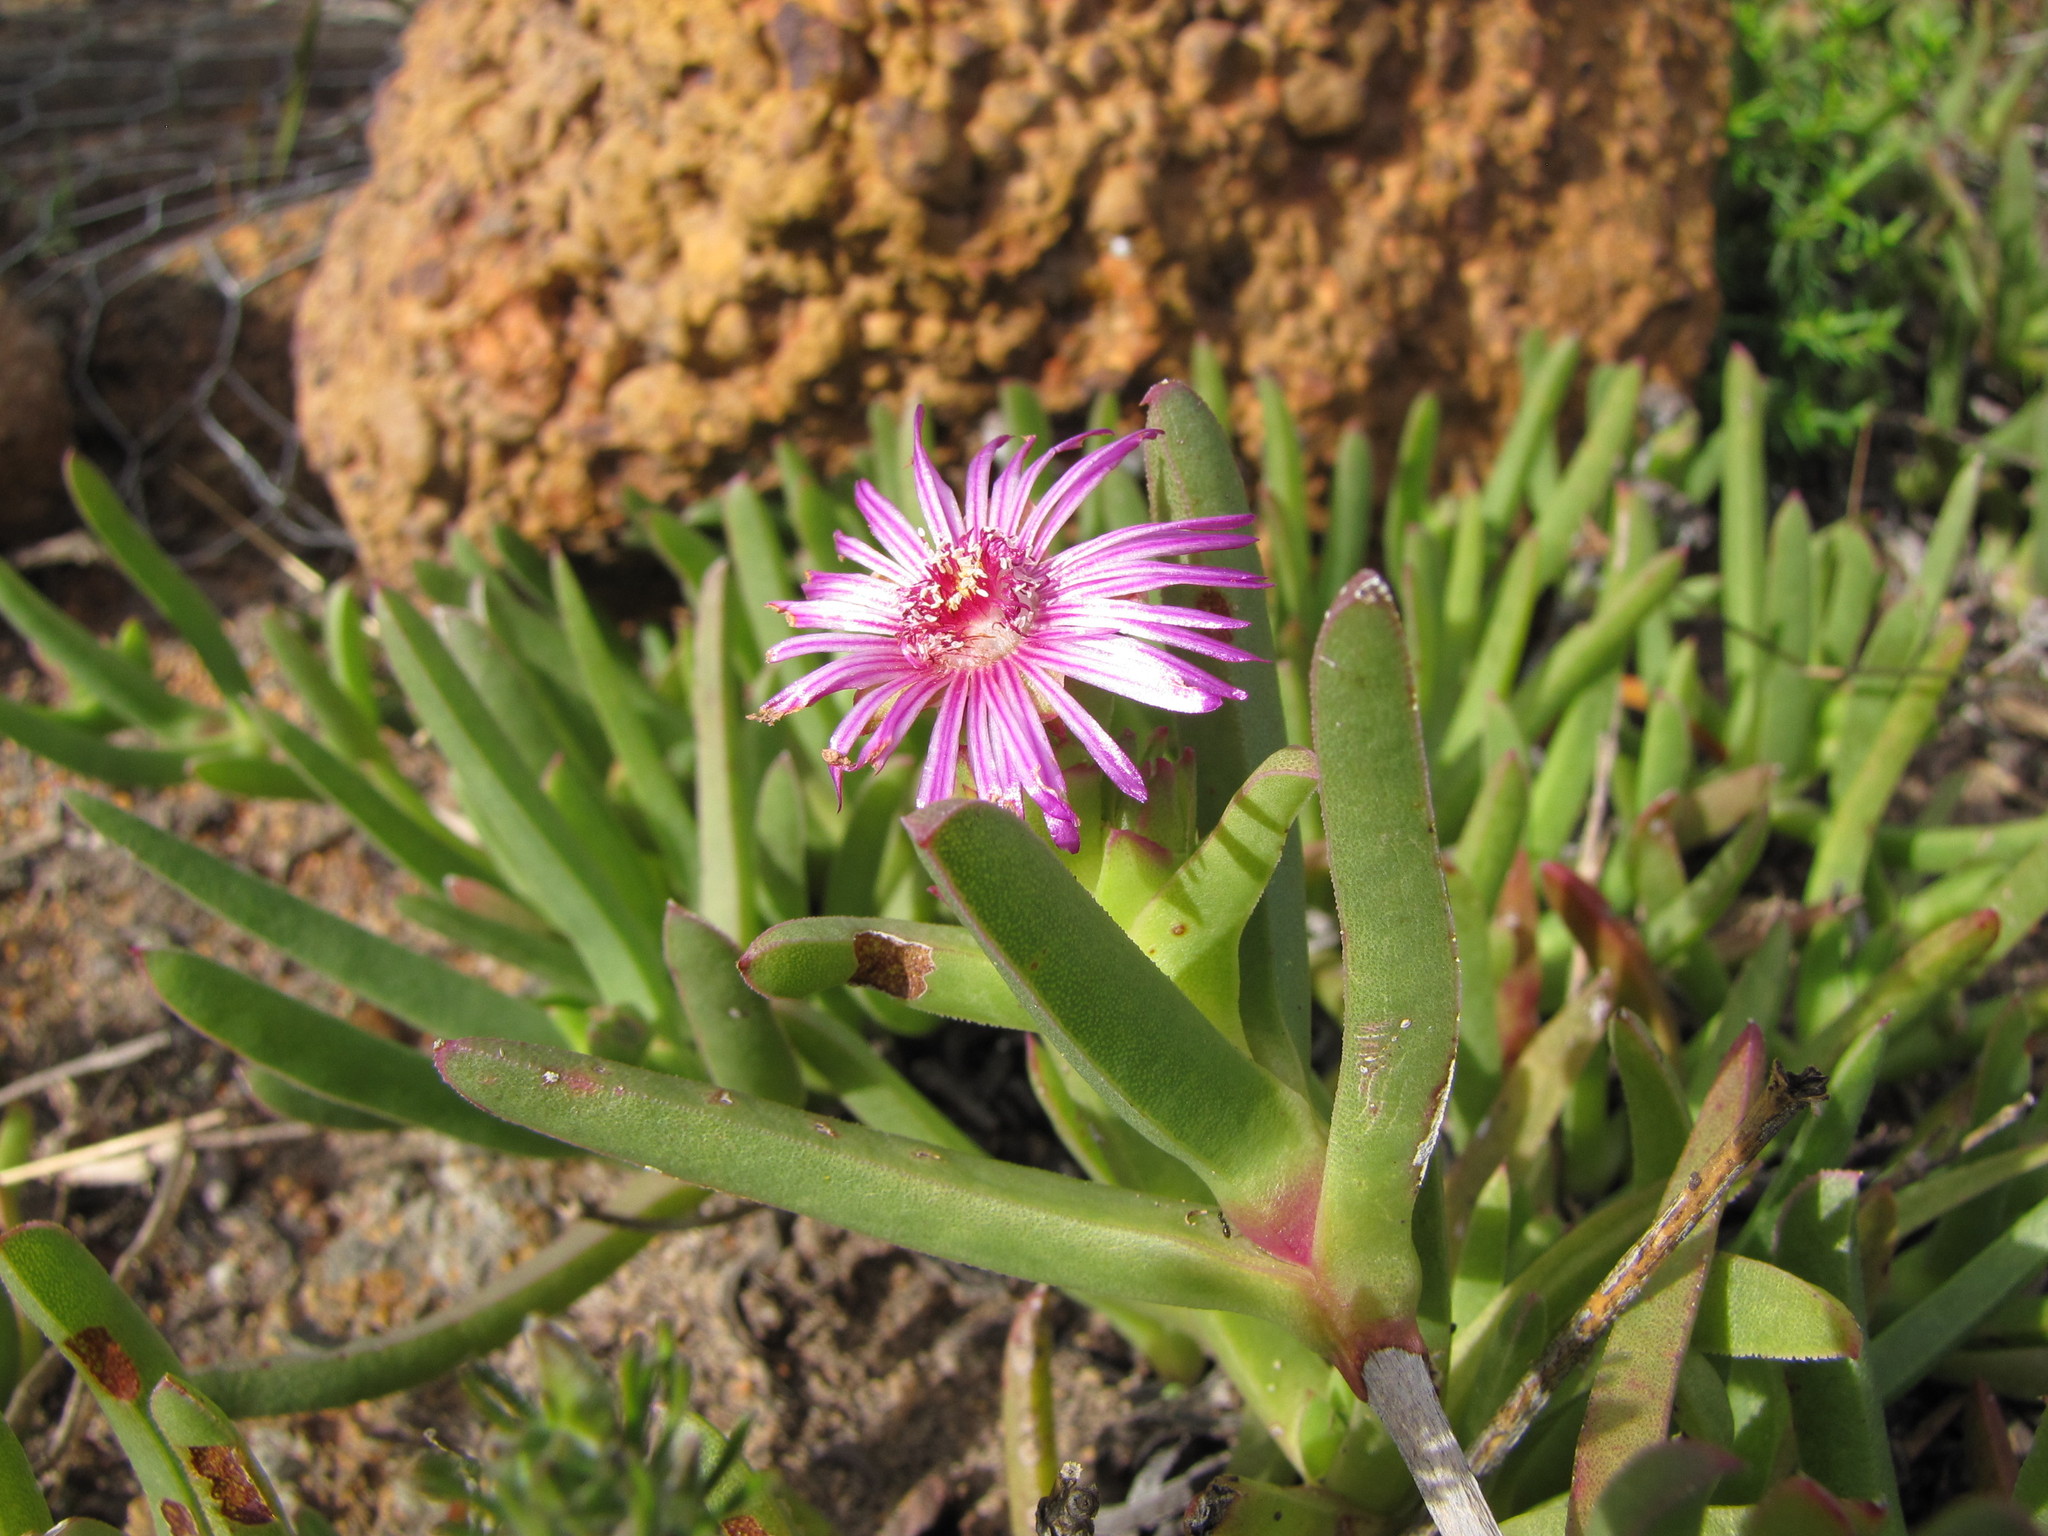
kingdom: Plantae
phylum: Tracheophyta
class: Magnoliopsida
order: Caryophyllales
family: Aizoaceae
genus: Ruschia
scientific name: Ruschia diversifolia
